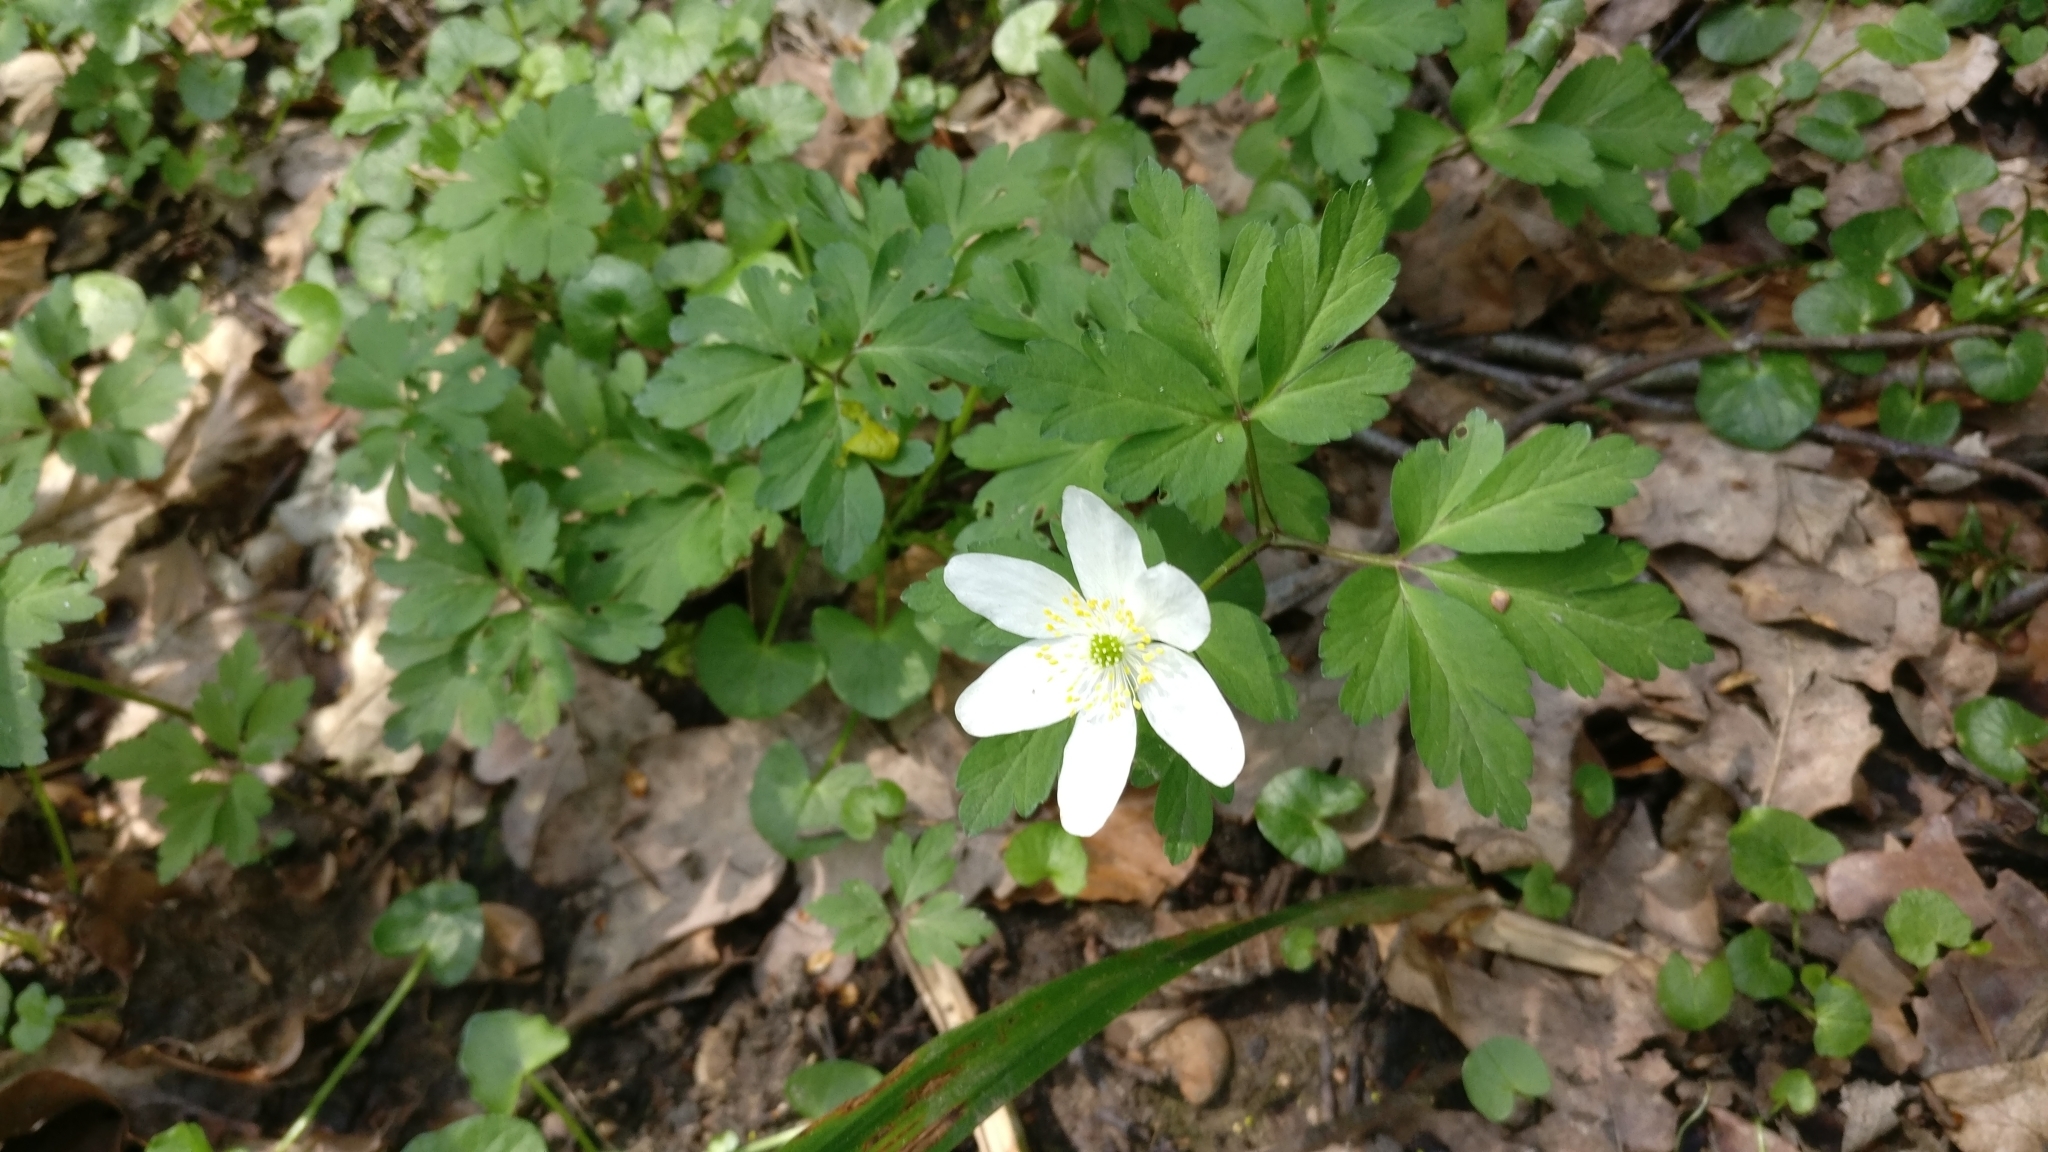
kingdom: Plantae
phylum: Tracheophyta
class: Magnoliopsida
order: Ranunculales
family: Ranunculaceae
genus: Anemone
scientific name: Anemone nemorosa
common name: Wood anemone
